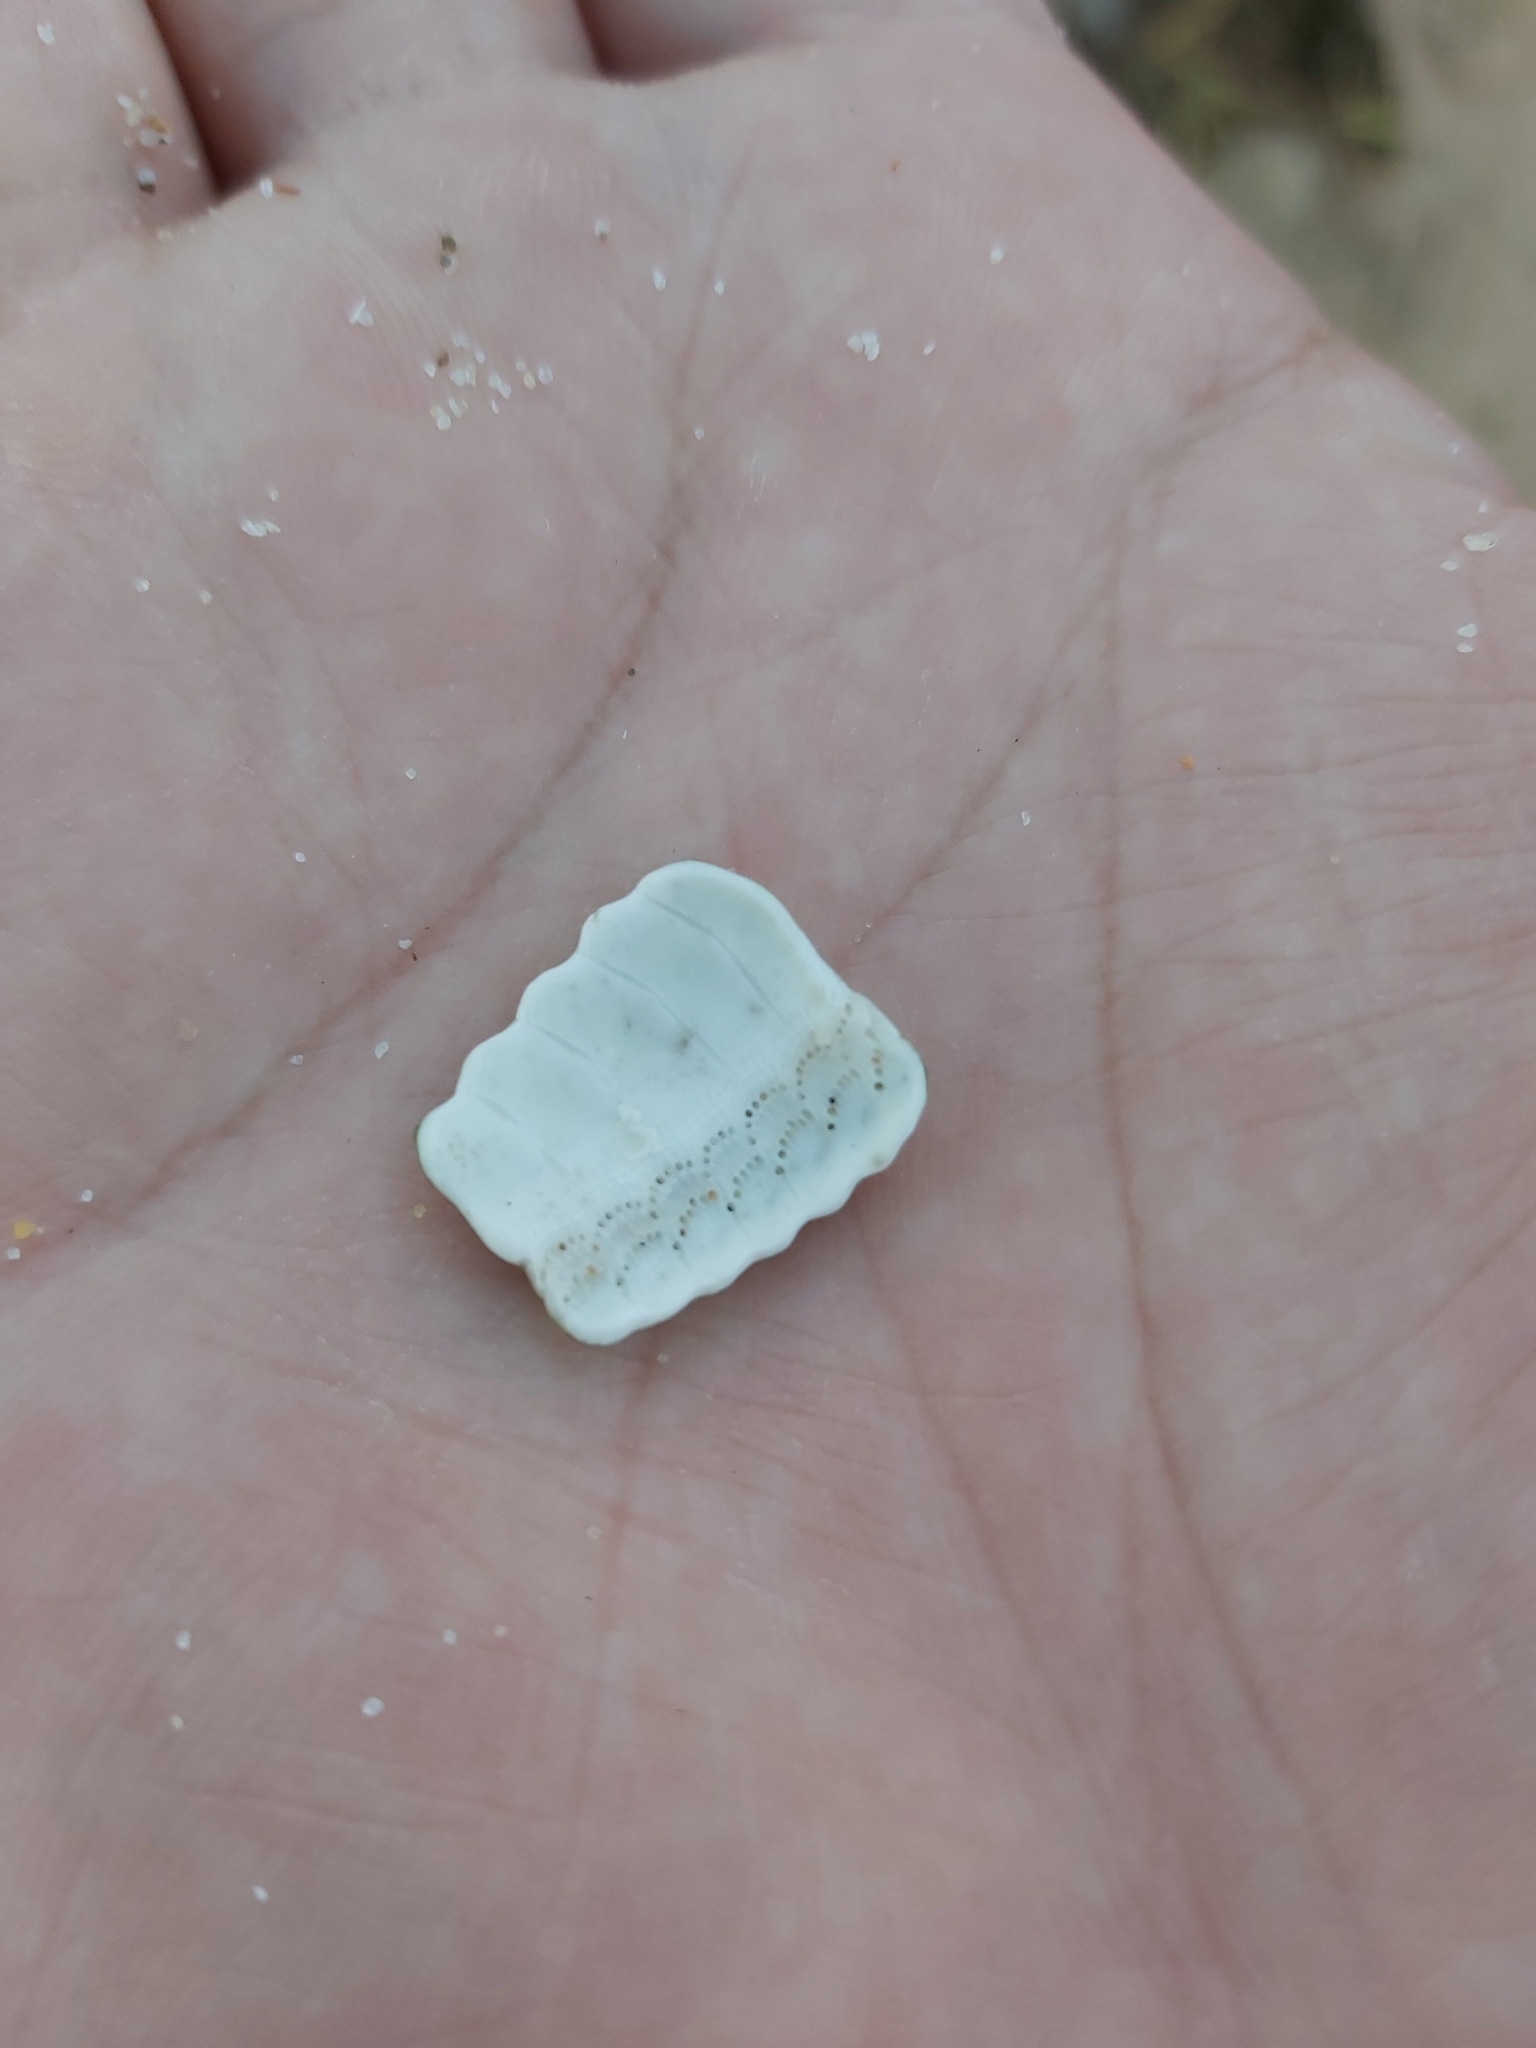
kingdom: Animalia
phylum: Echinodermata
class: Echinoidea
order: Camarodonta
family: Echinometridae
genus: Heliocidaris
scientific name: Heliocidaris erythrogramma
